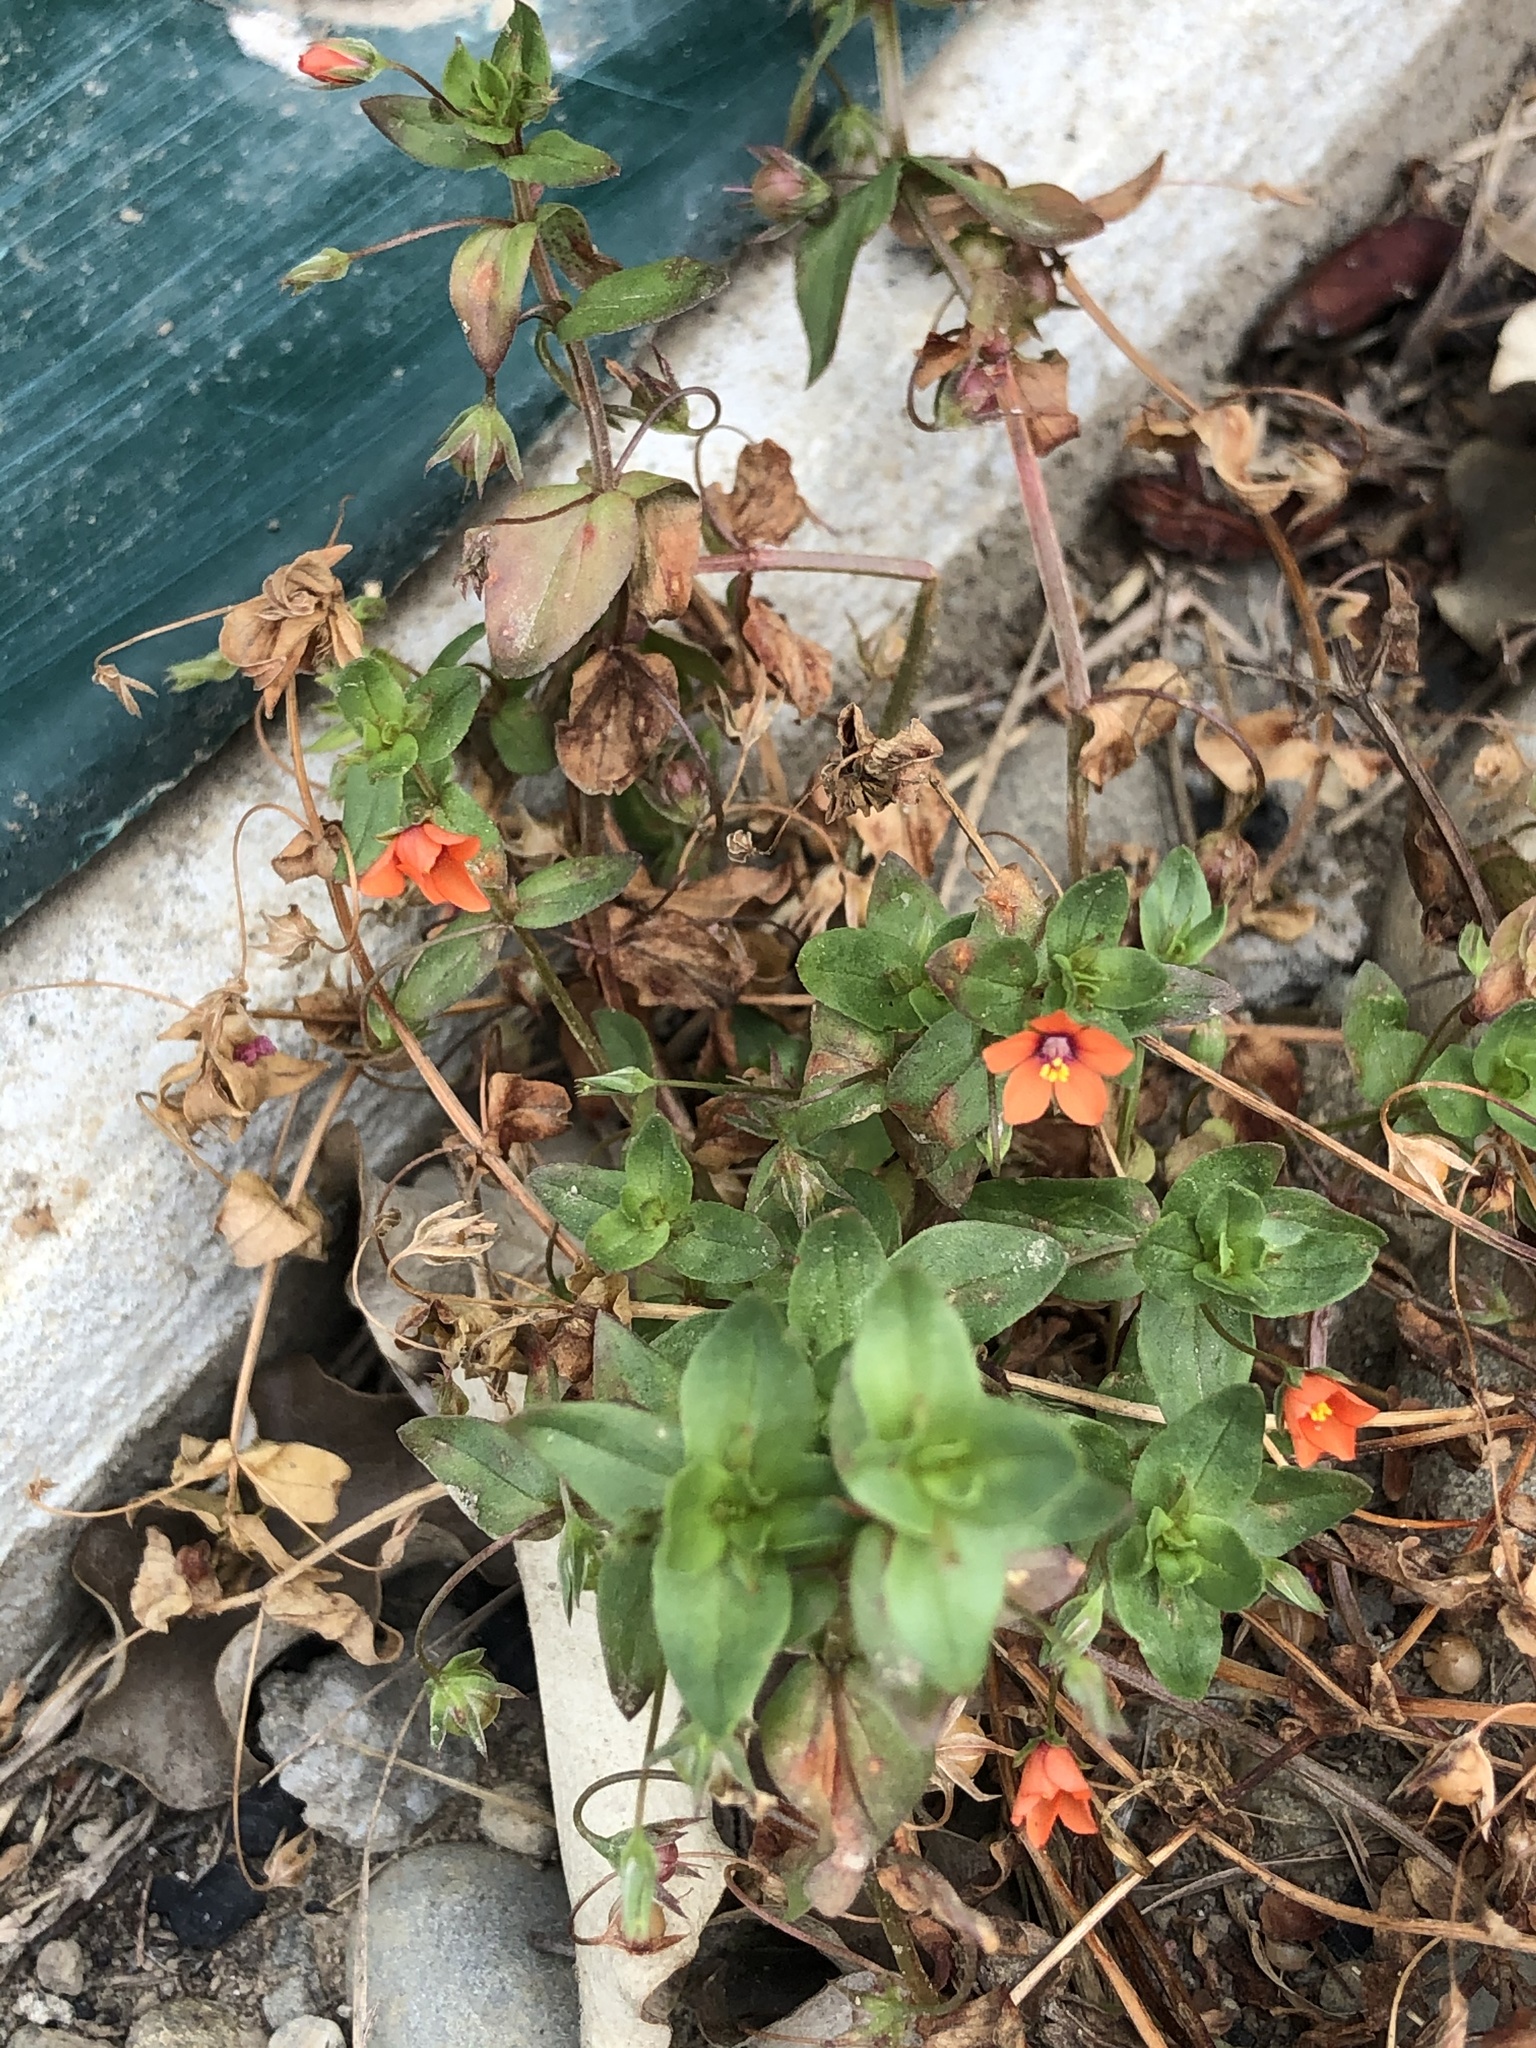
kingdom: Plantae
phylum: Tracheophyta
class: Magnoliopsida
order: Ericales
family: Primulaceae
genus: Lysimachia
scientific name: Lysimachia arvensis
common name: Scarlet pimpernel
